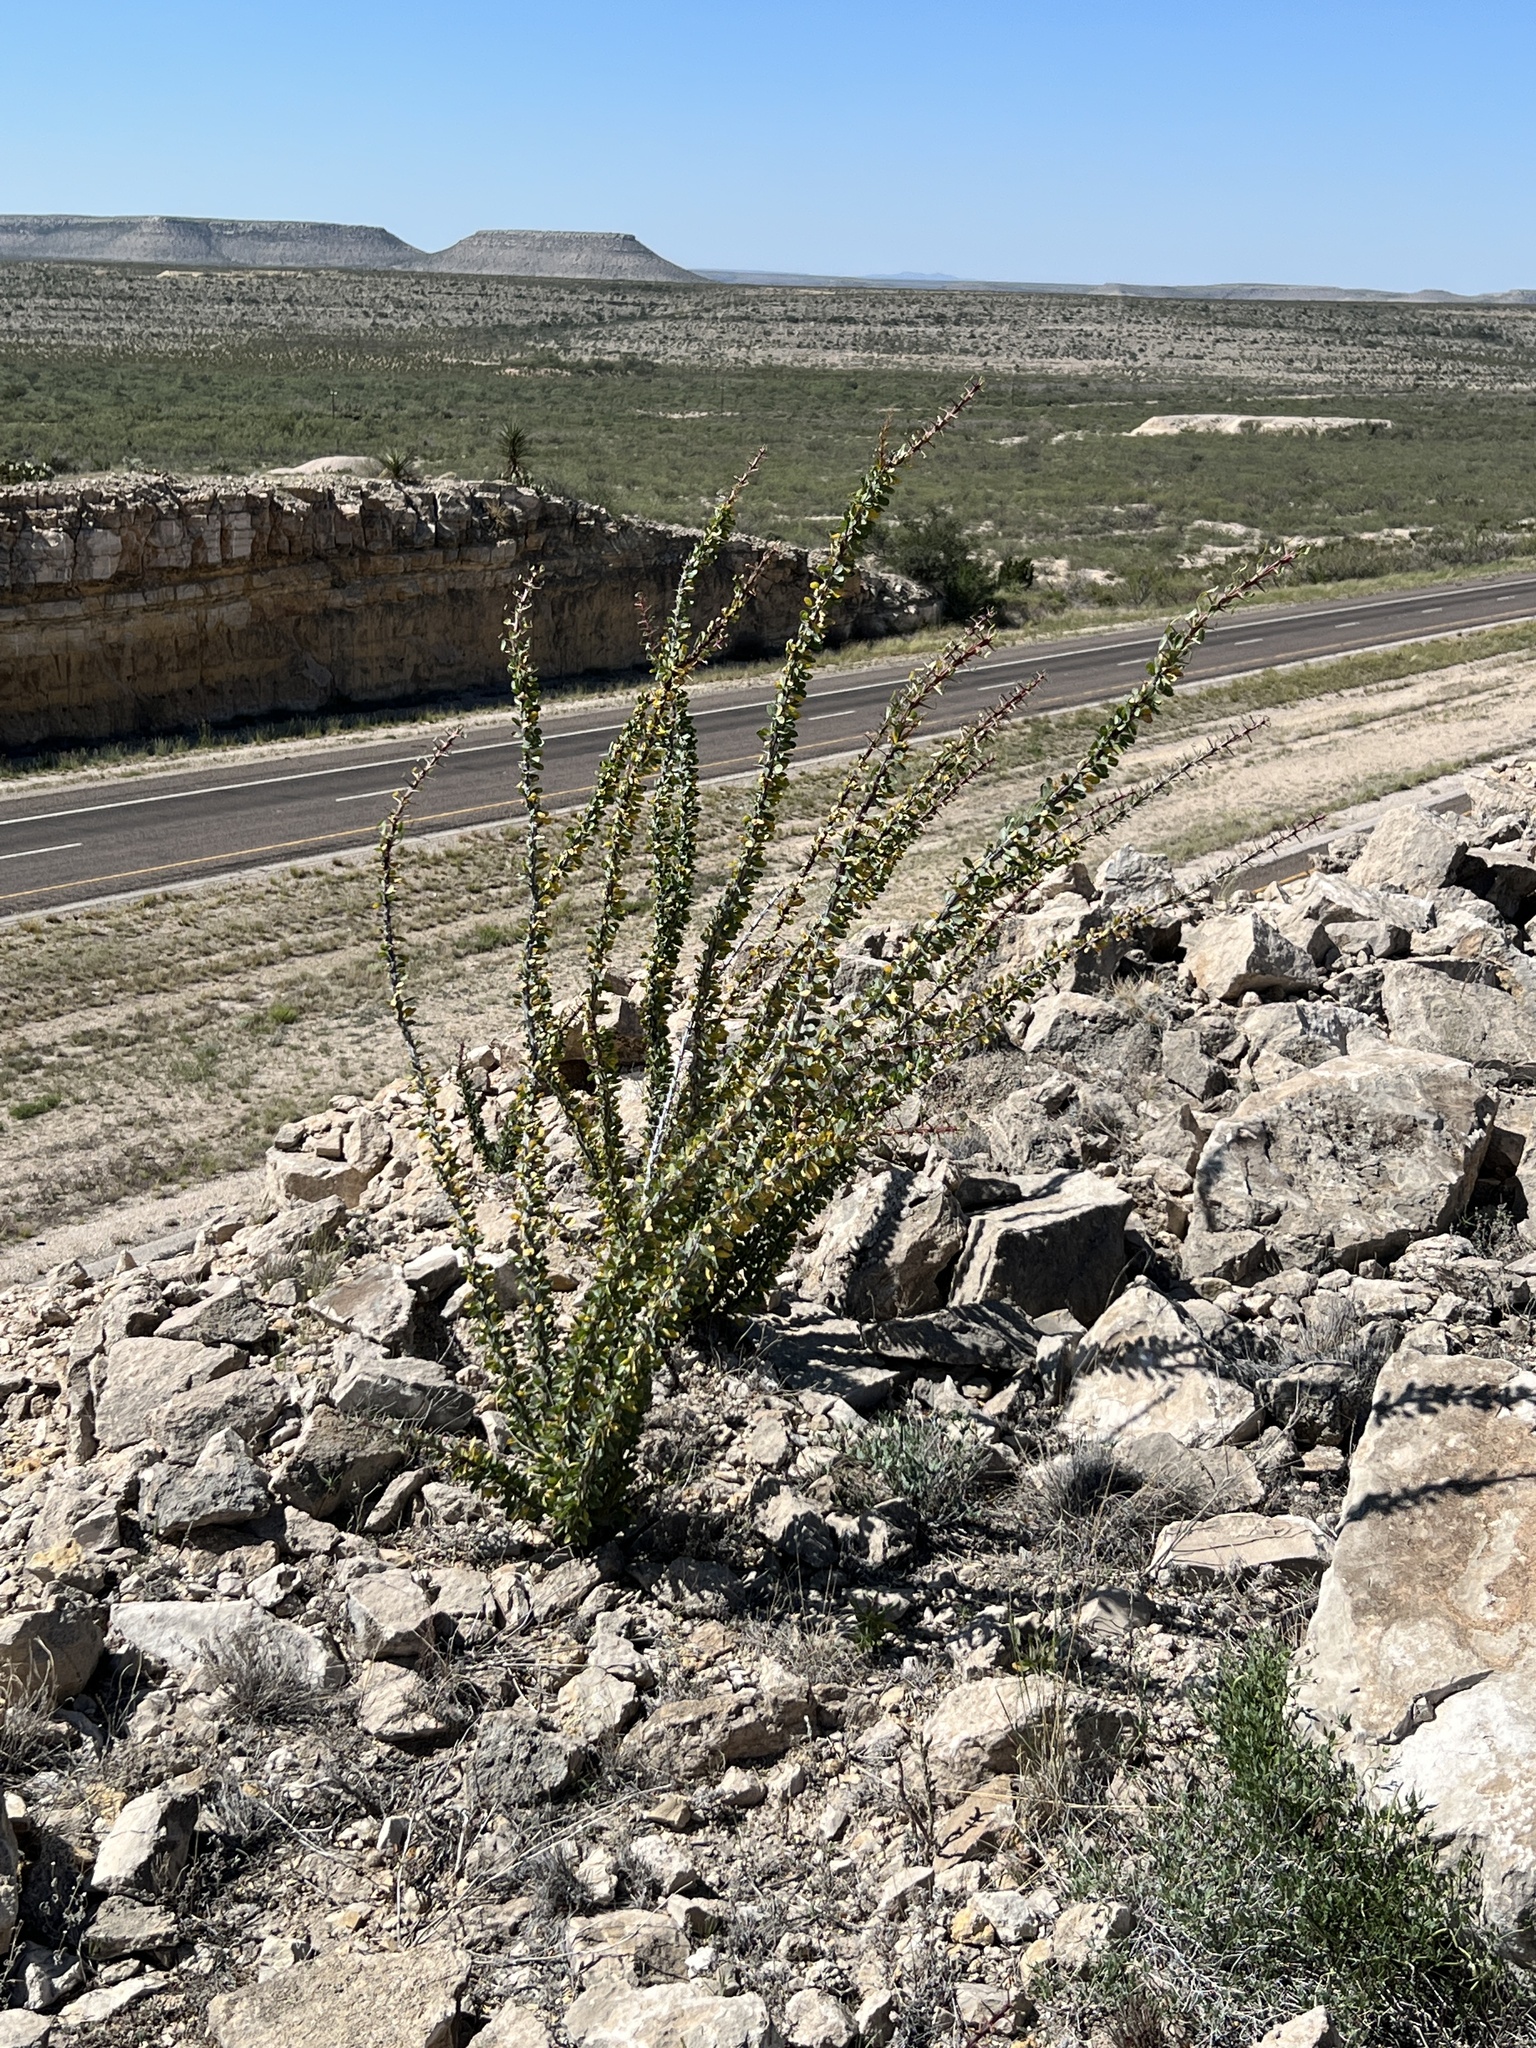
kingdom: Plantae
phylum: Tracheophyta
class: Magnoliopsida
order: Ericales
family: Fouquieriaceae
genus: Fouquieria
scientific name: Fouquieria splendens
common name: Vine-cactus
